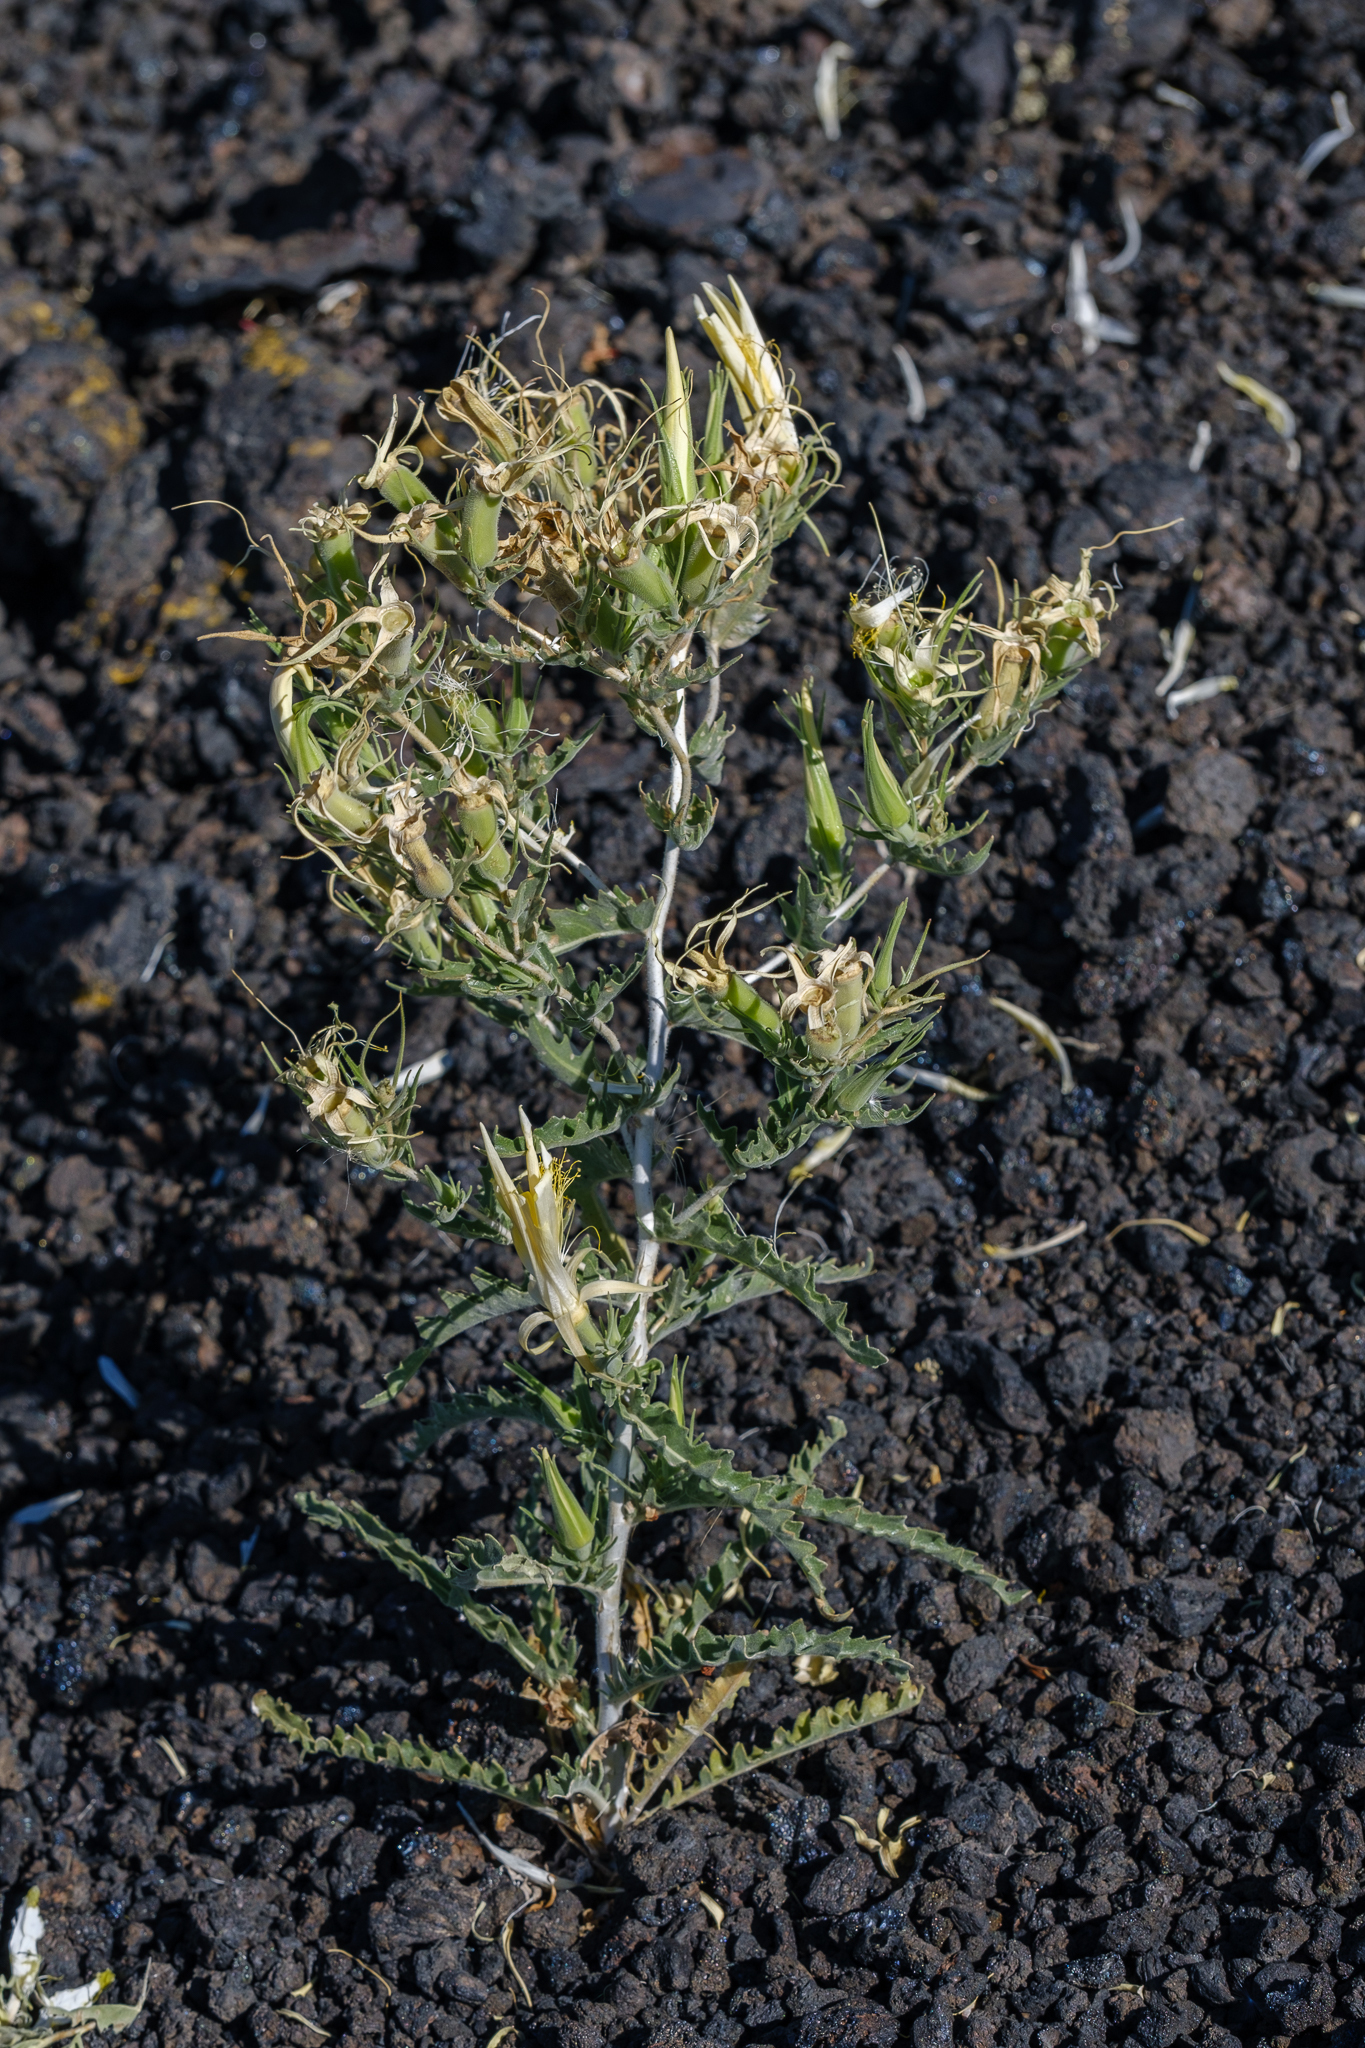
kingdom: Plantae
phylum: Tracheophyta
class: Magnoliopsida
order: Cornales
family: Loasaceae
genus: Mentzelia
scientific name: Mentzelia laevicaulis
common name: Smooth-stem blazingstar
